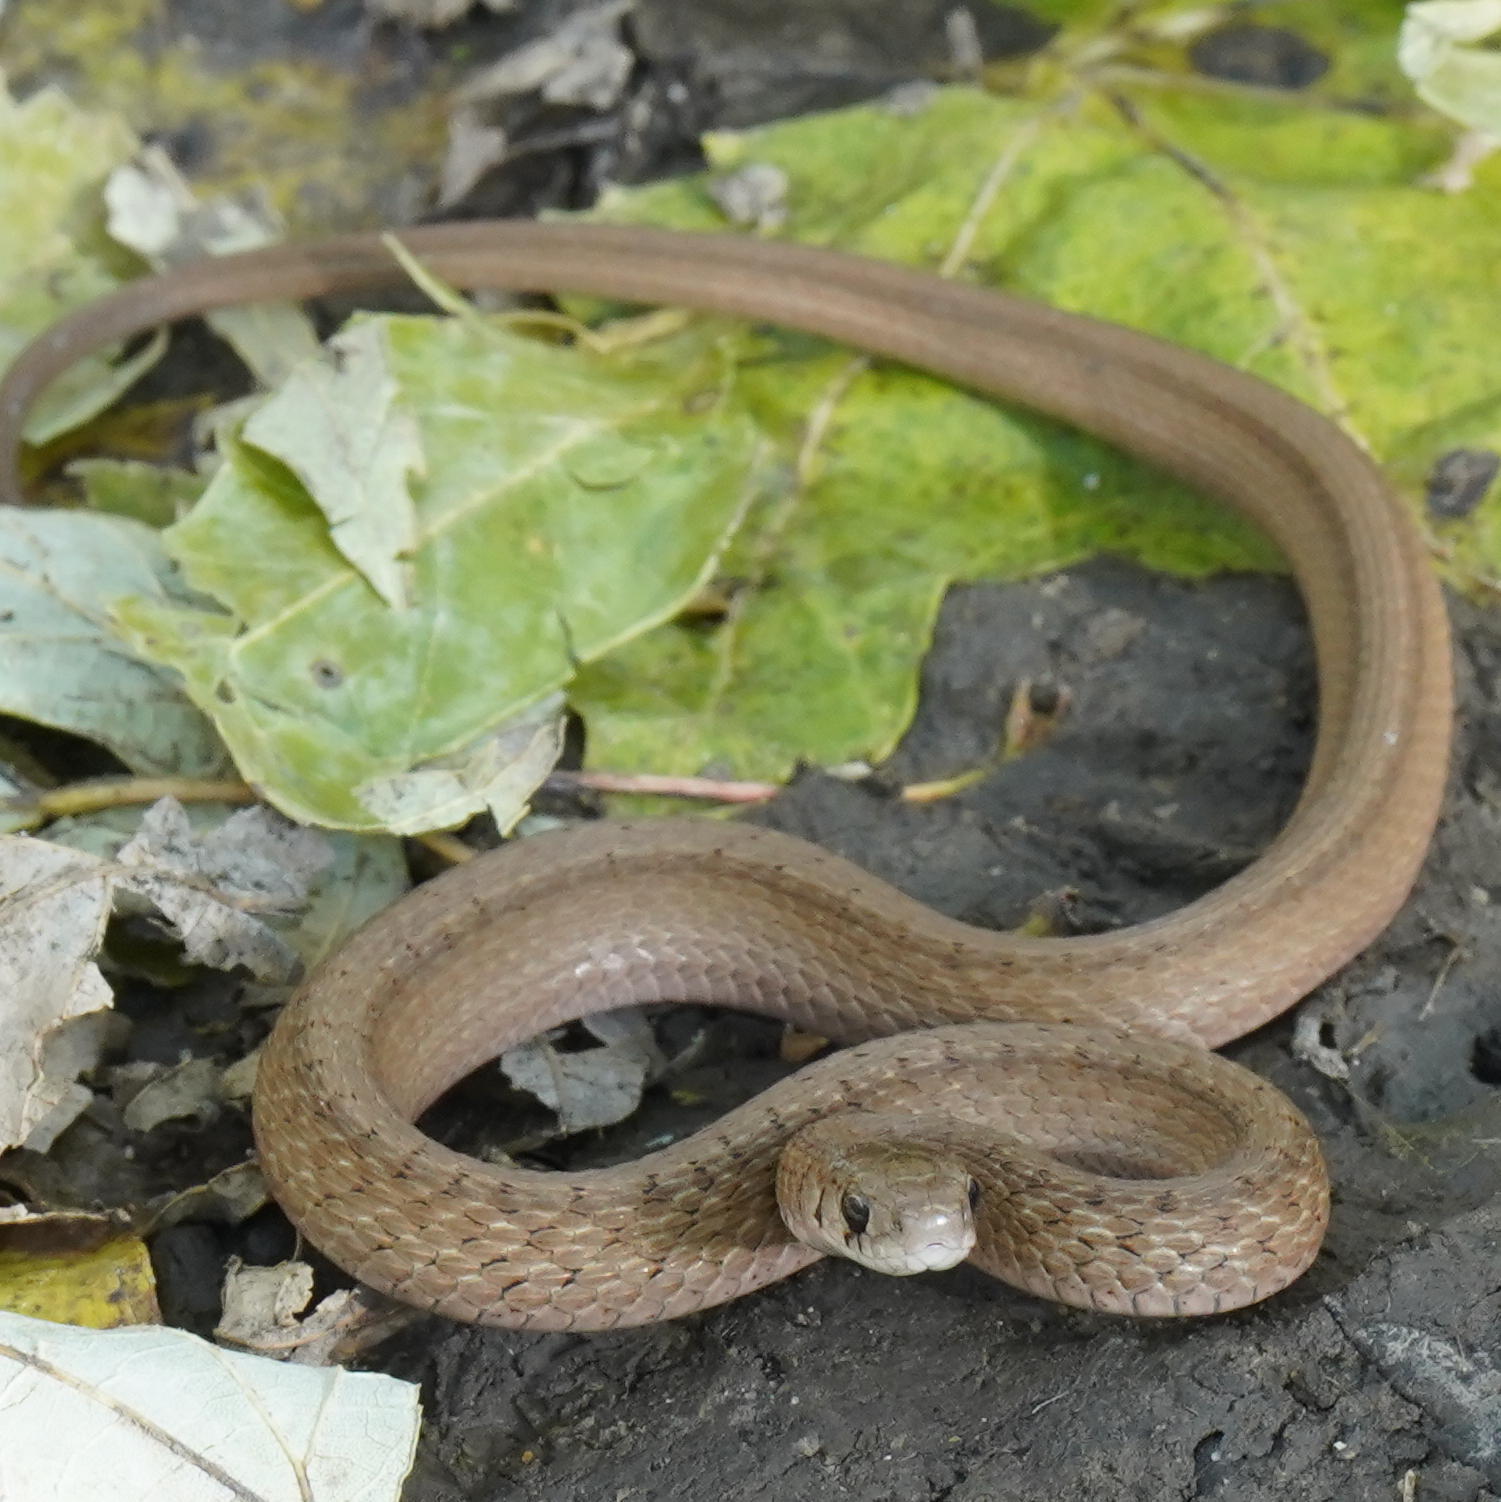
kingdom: Animalia
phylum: Chordata
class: Squamata
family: Colubridae
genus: Storeria
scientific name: Storeria dekayi
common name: (dekay’s) brown snake
